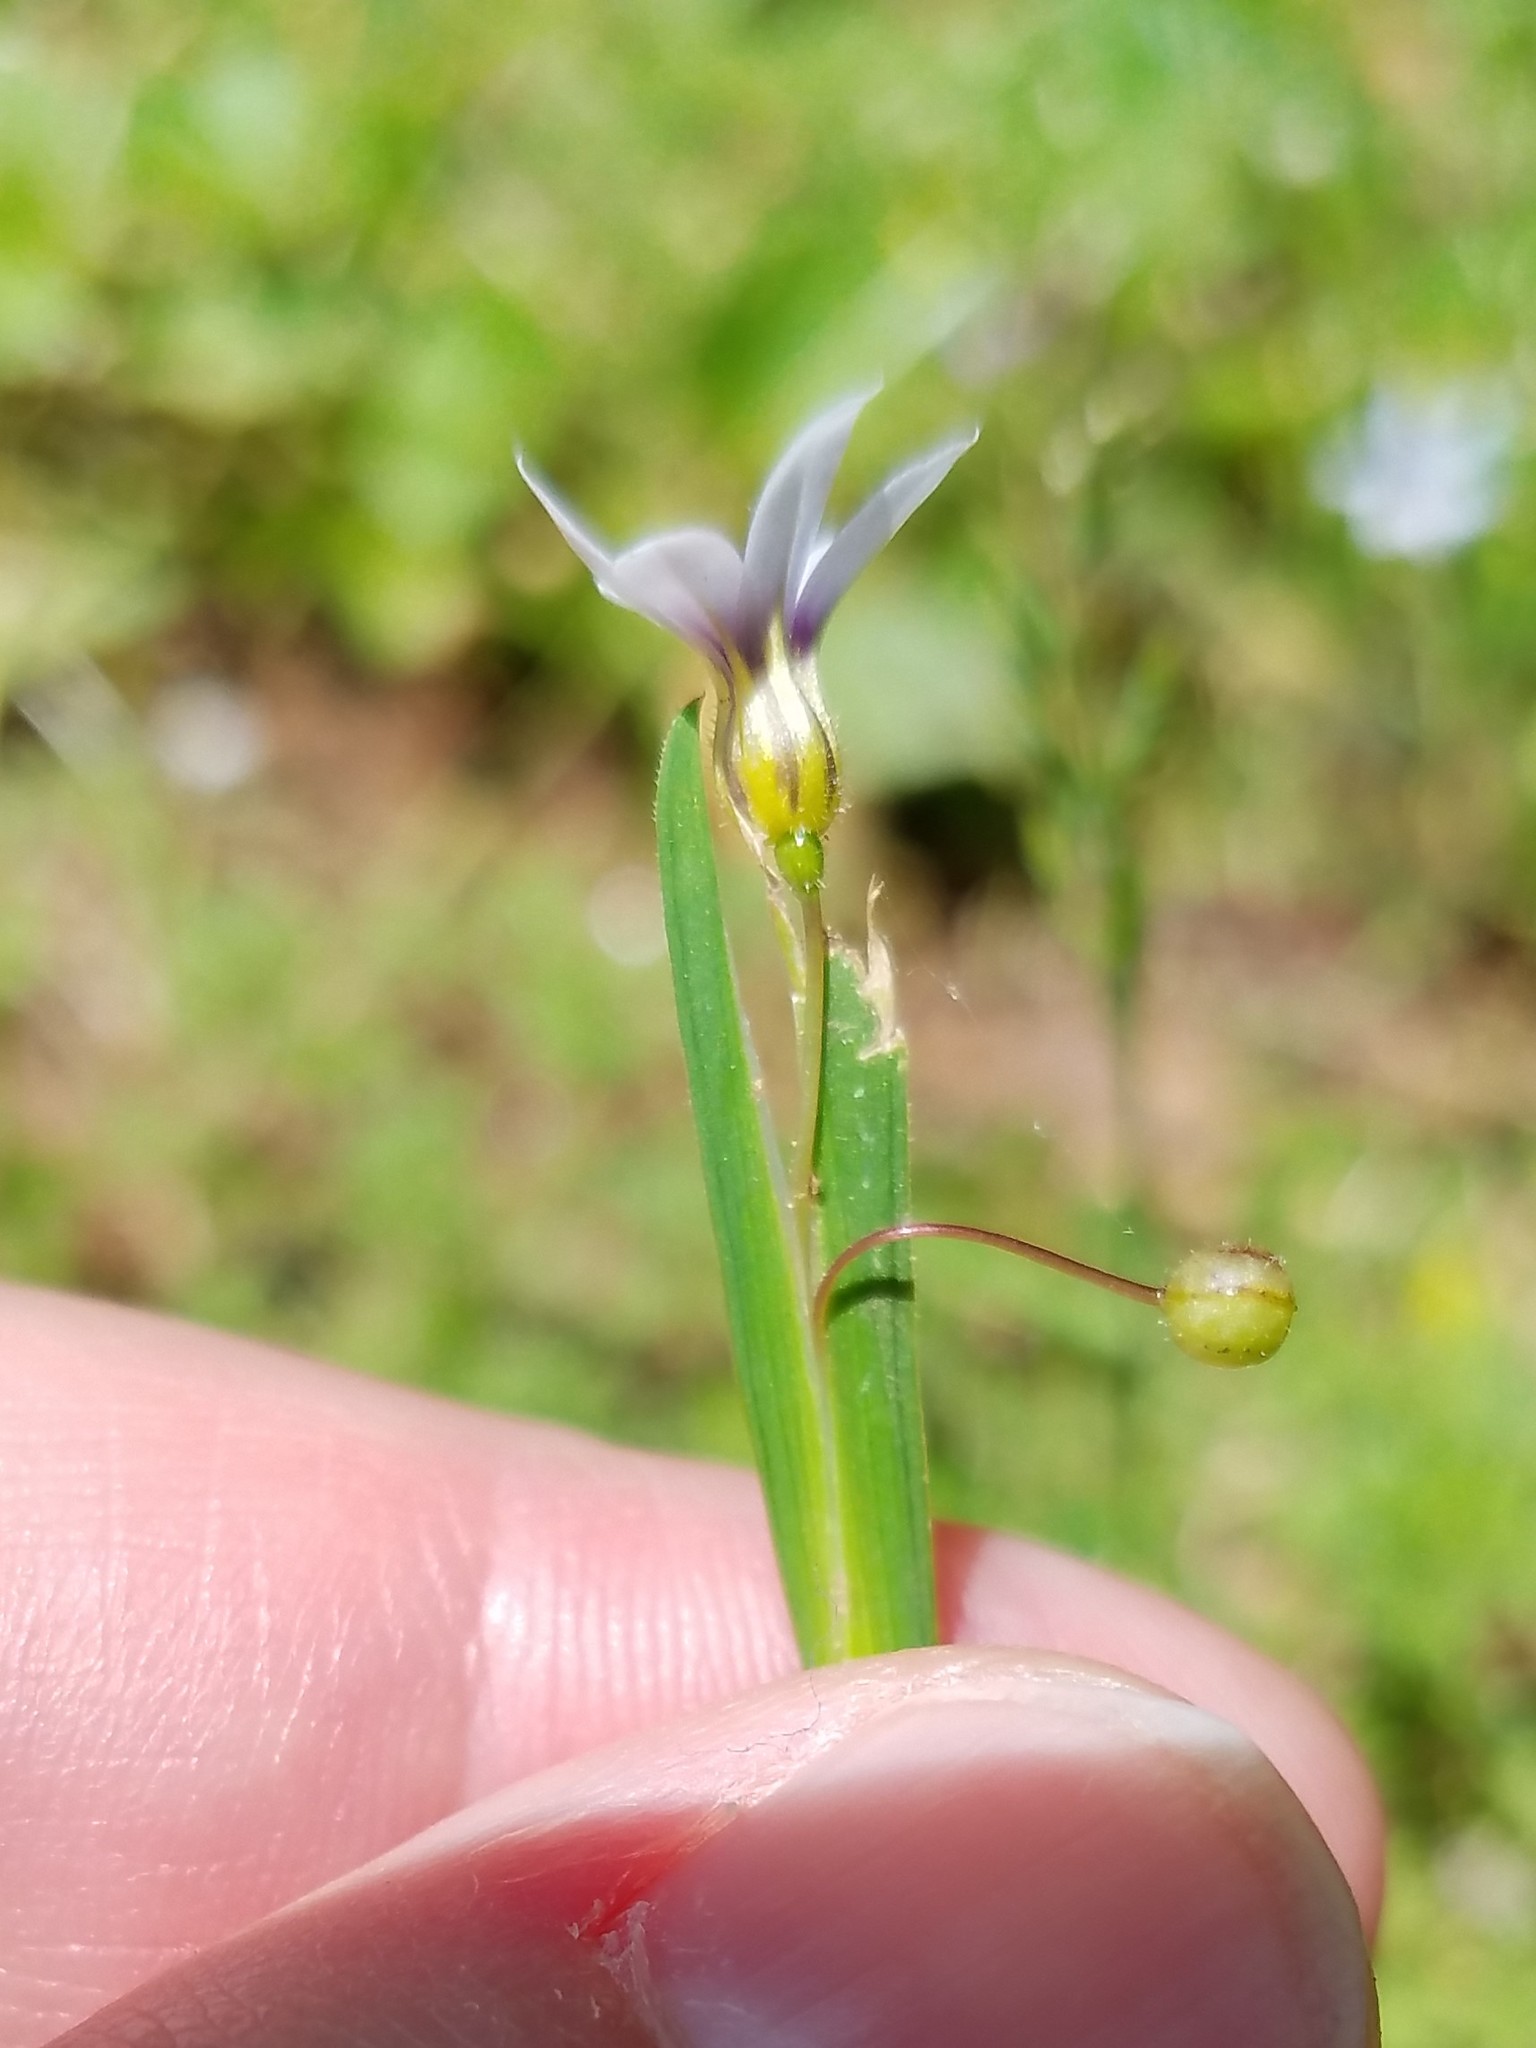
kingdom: Plantae
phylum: Tracheophyta
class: Liliopsida
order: Asparagales
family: Iridaceae
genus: Sisyrinchium
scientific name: Sisyrinchium micranthum
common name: Bermuda pigroot
